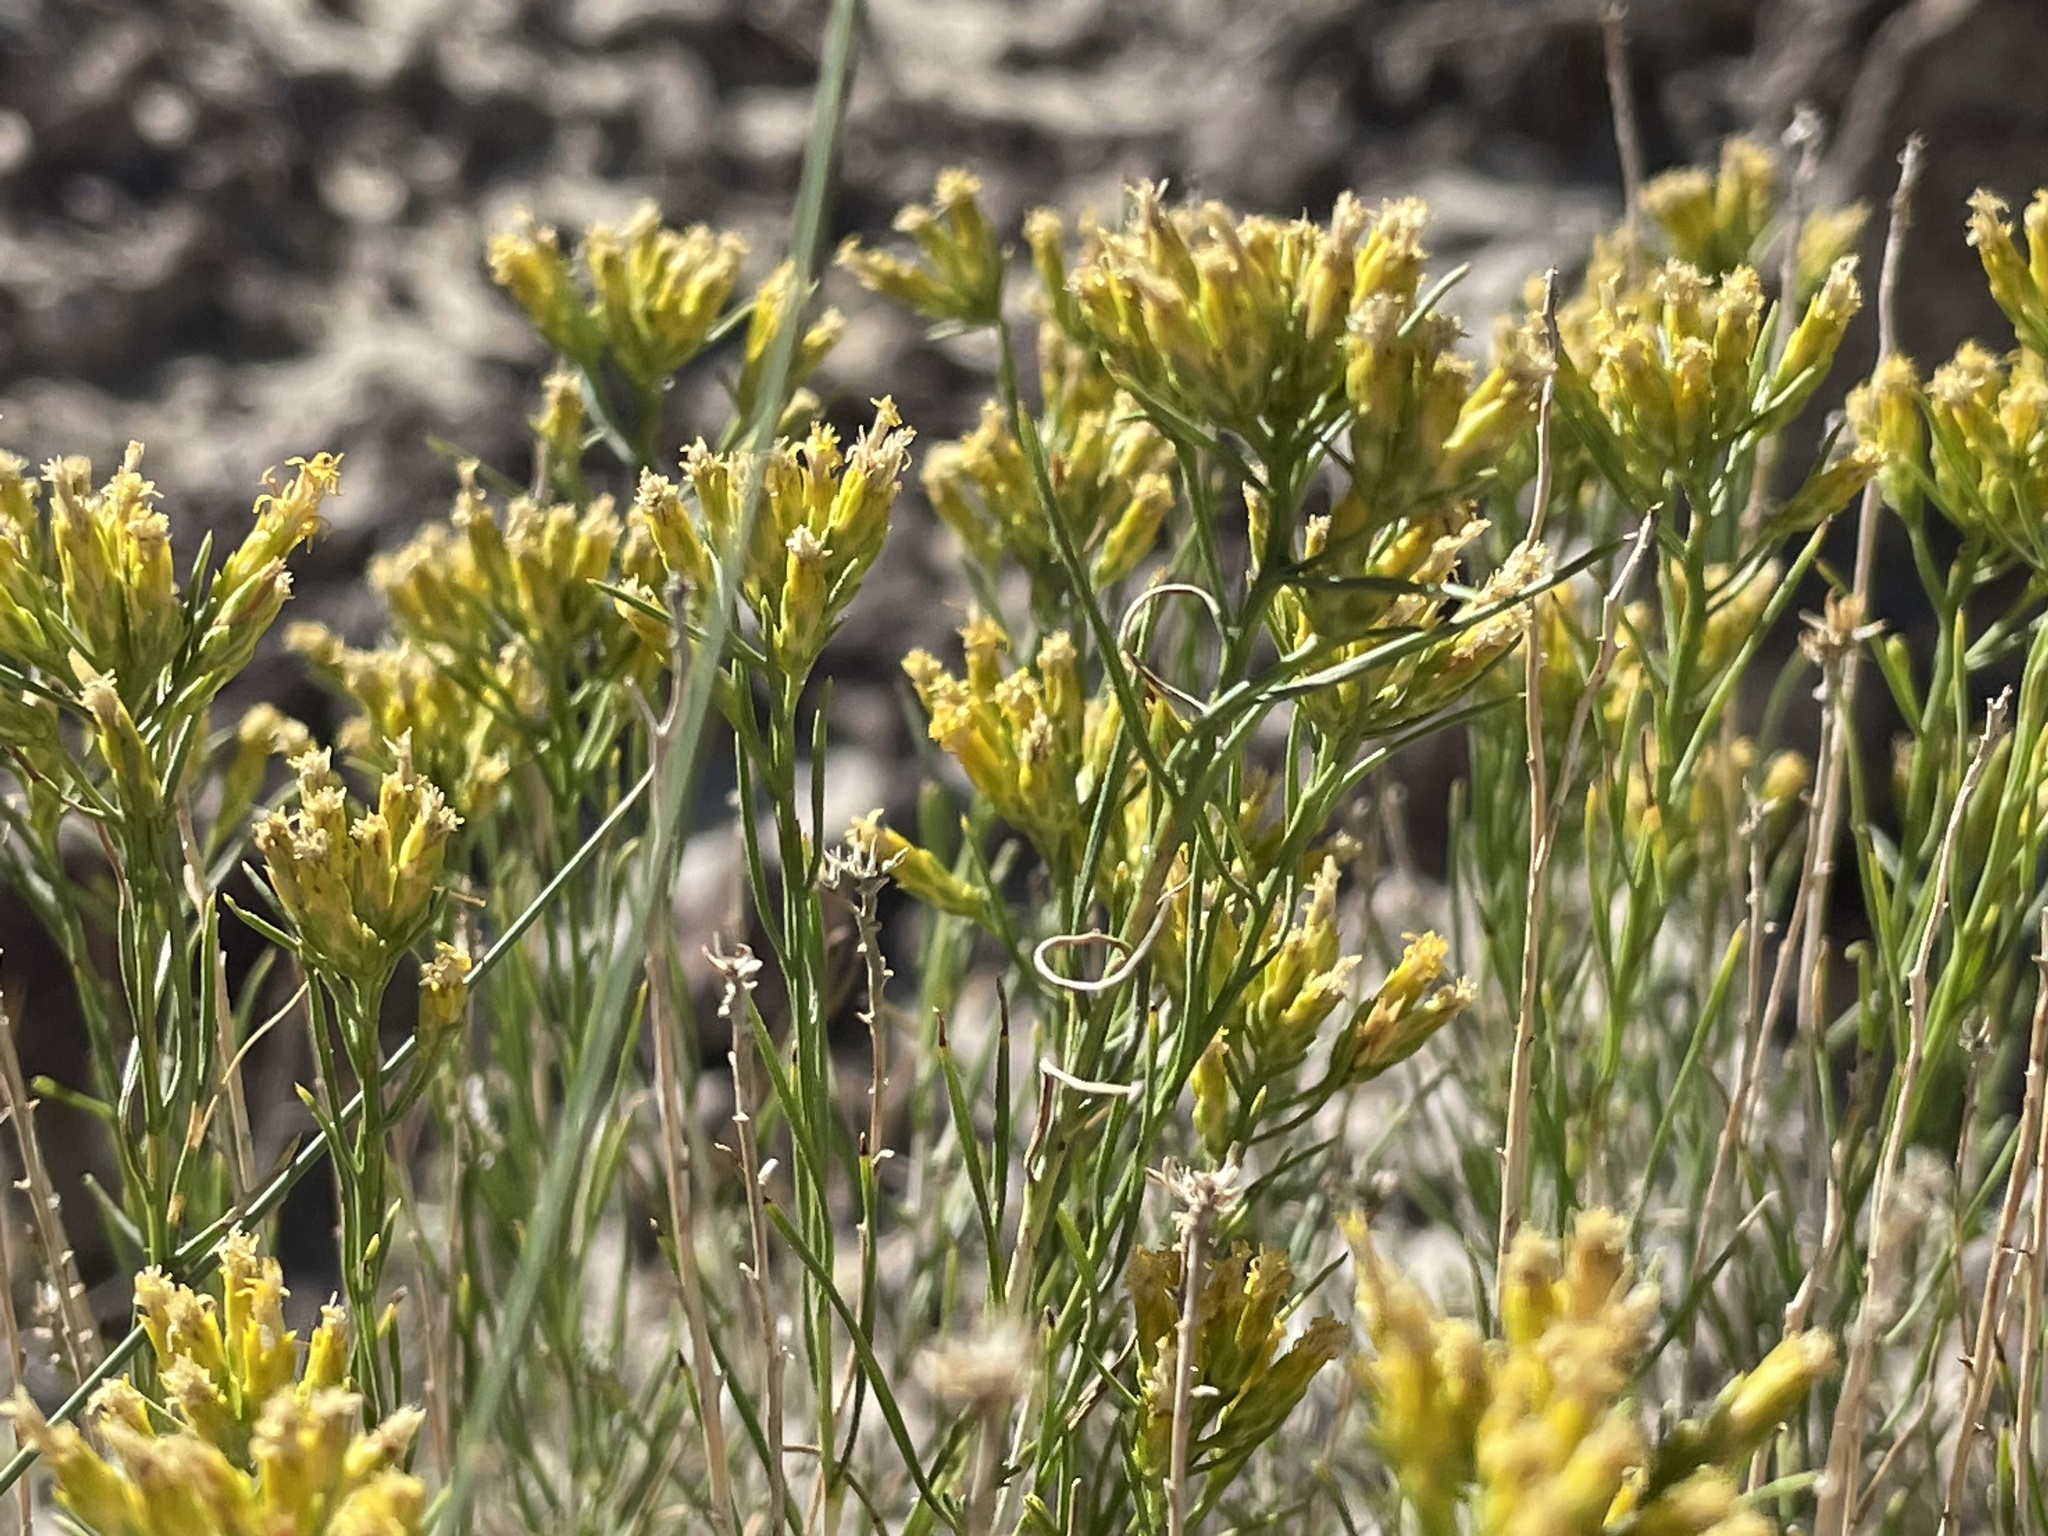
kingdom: Plantae
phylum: Tracheophyta
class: Magnoliopsida
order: Asterales
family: Asteraceae
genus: Chrysothamnus
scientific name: Chrysothamnus greenei
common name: Greene's rabbitbrush
